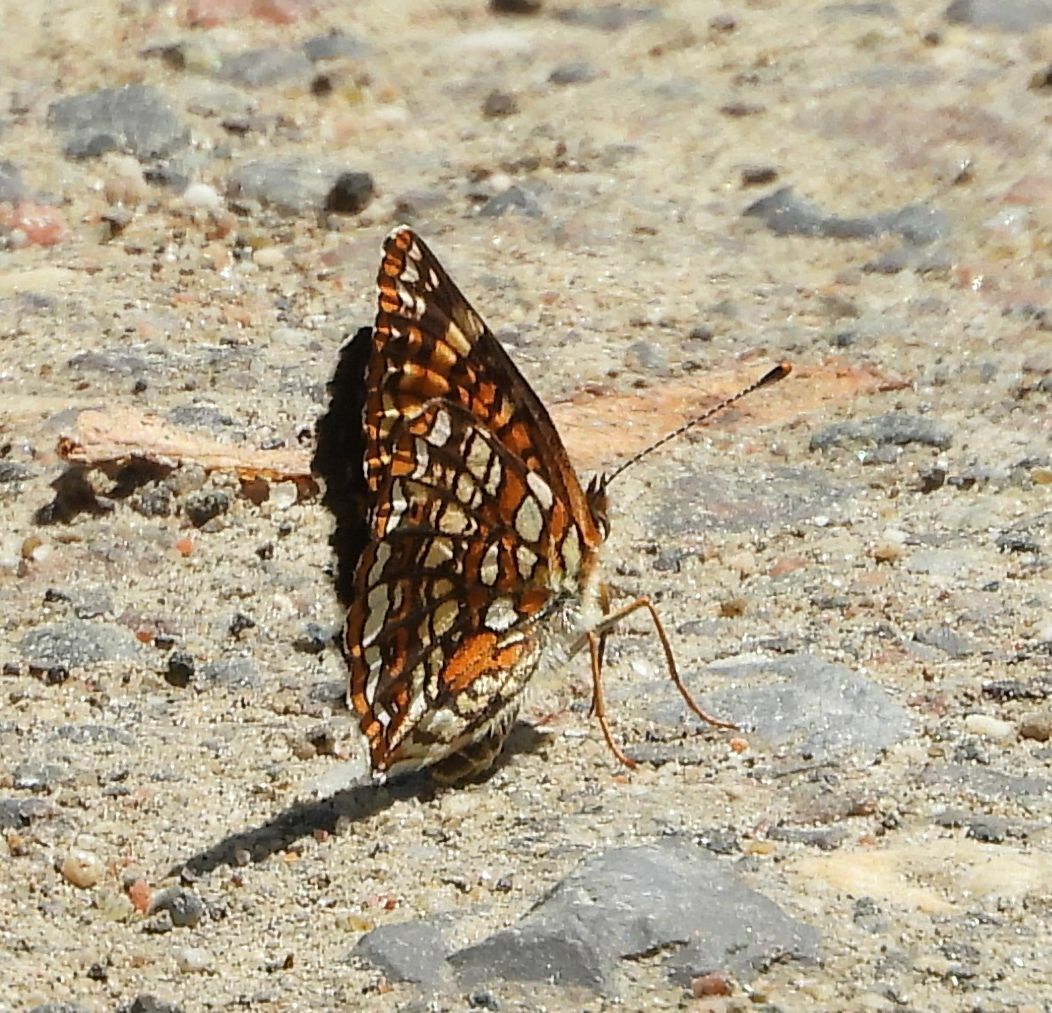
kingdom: Animalia
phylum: Arthropoda
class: Insecta
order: Lepidoptera
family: Nymphalidae
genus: Chlosyne
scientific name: Chlosyne harrisii
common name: Harris's checkerspot
